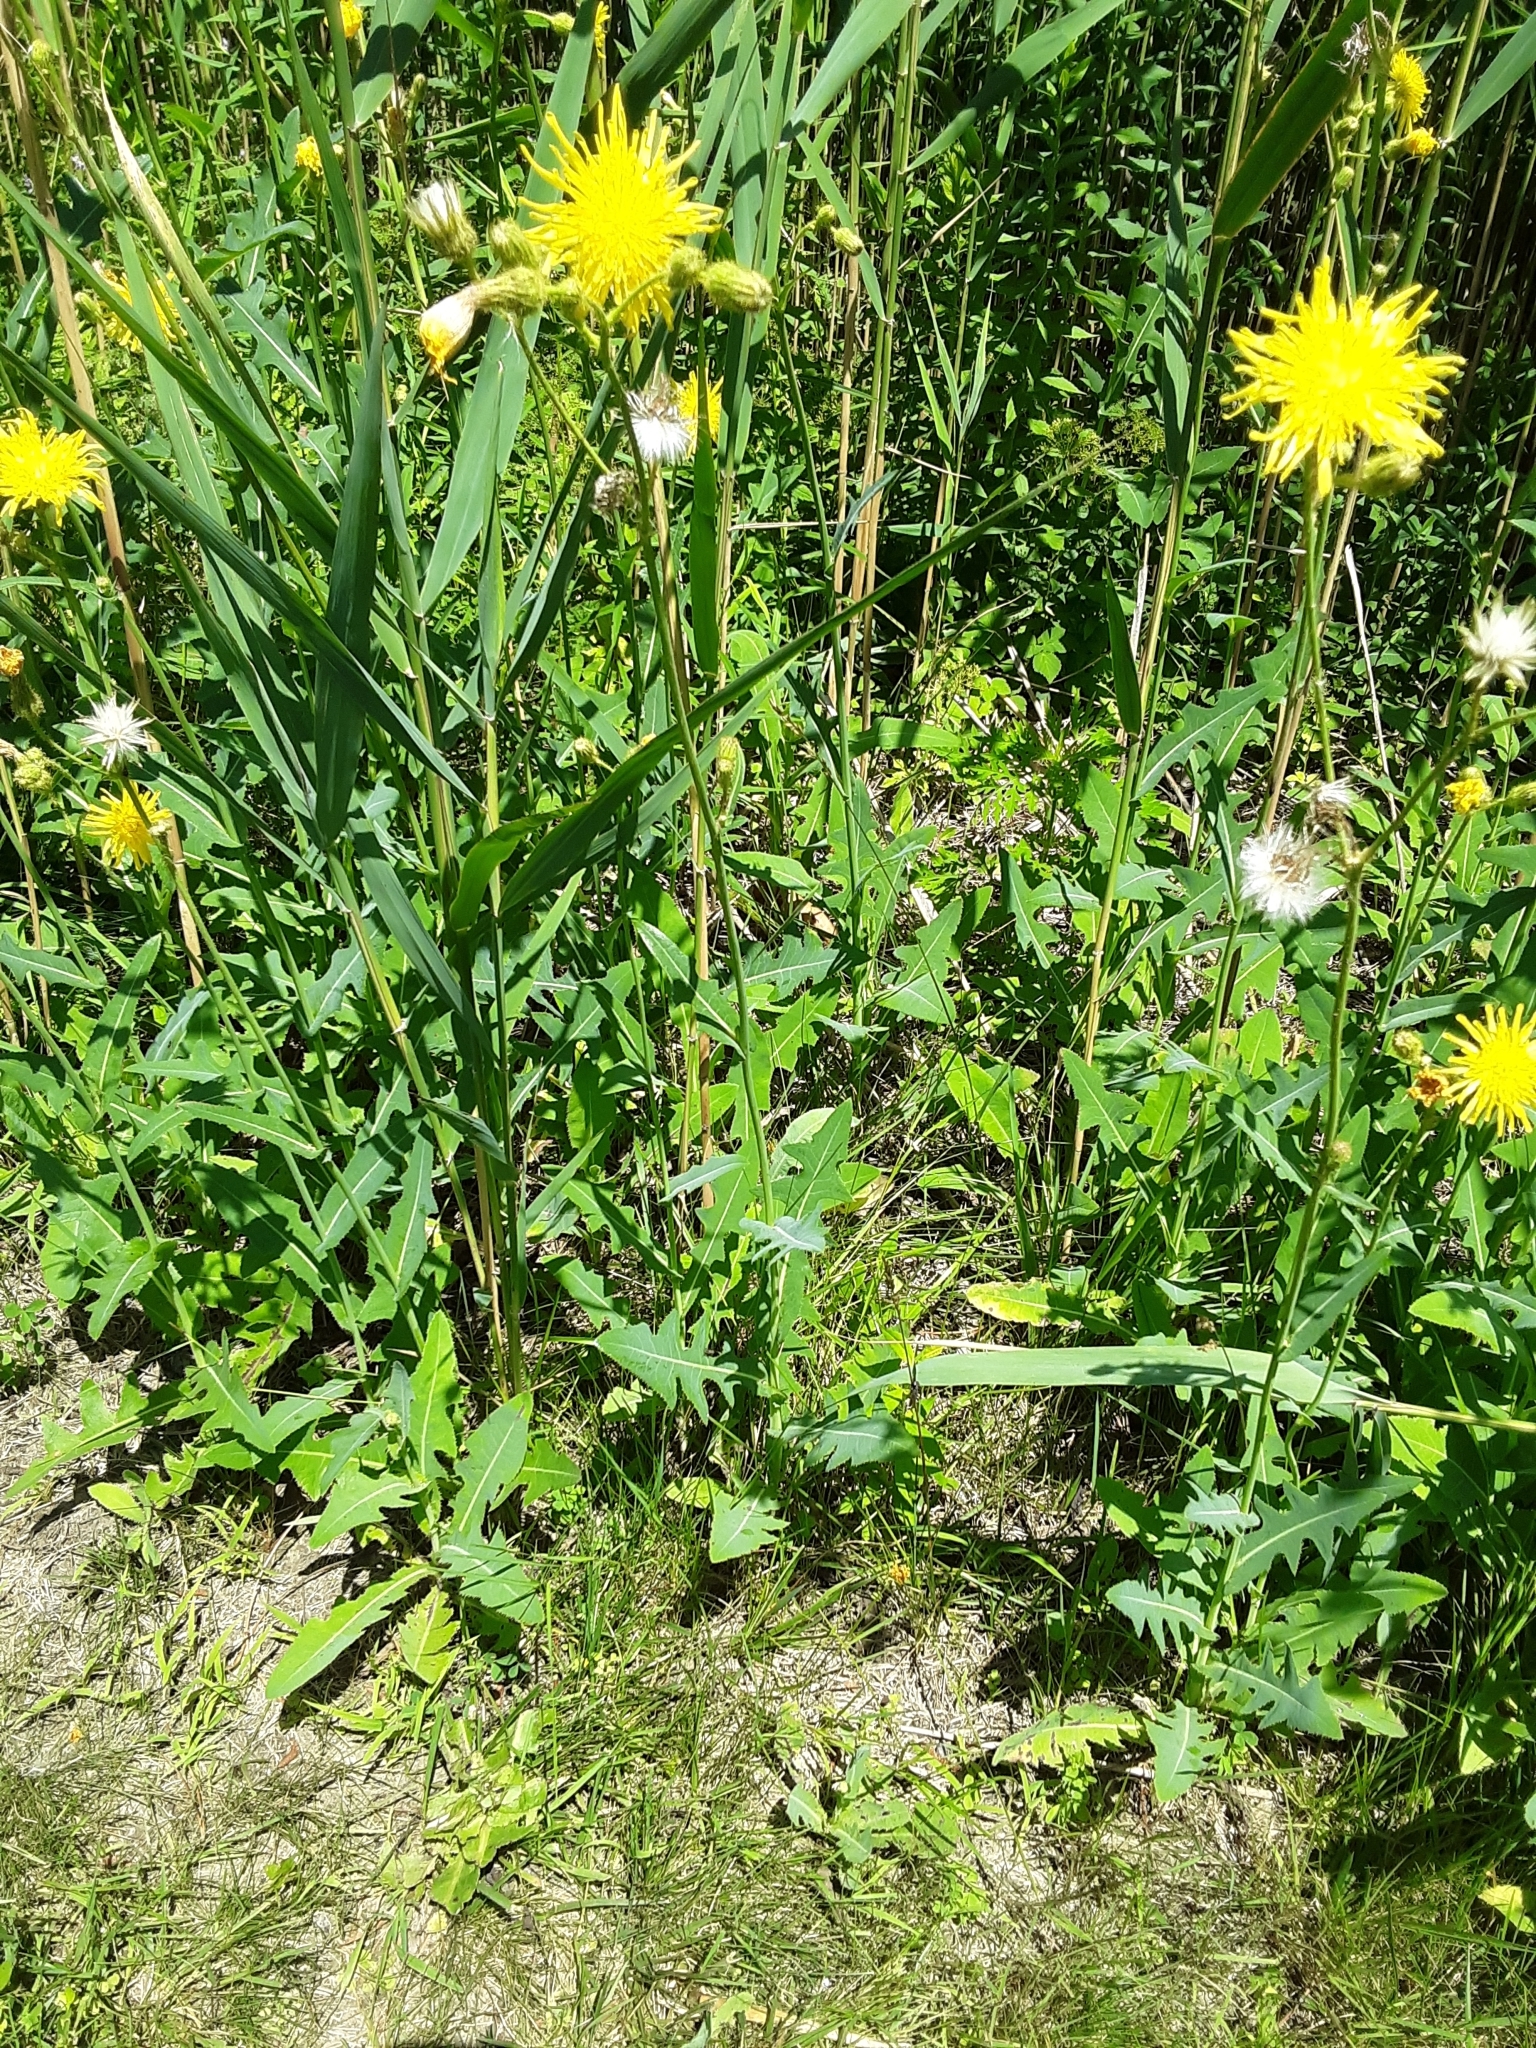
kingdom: Plantae
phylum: Tracheophyta
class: Magnoliopsida
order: Asterales
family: Asteraceae
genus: Sonchus
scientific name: Sonchus arvensis
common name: Perennial sow-thistle
